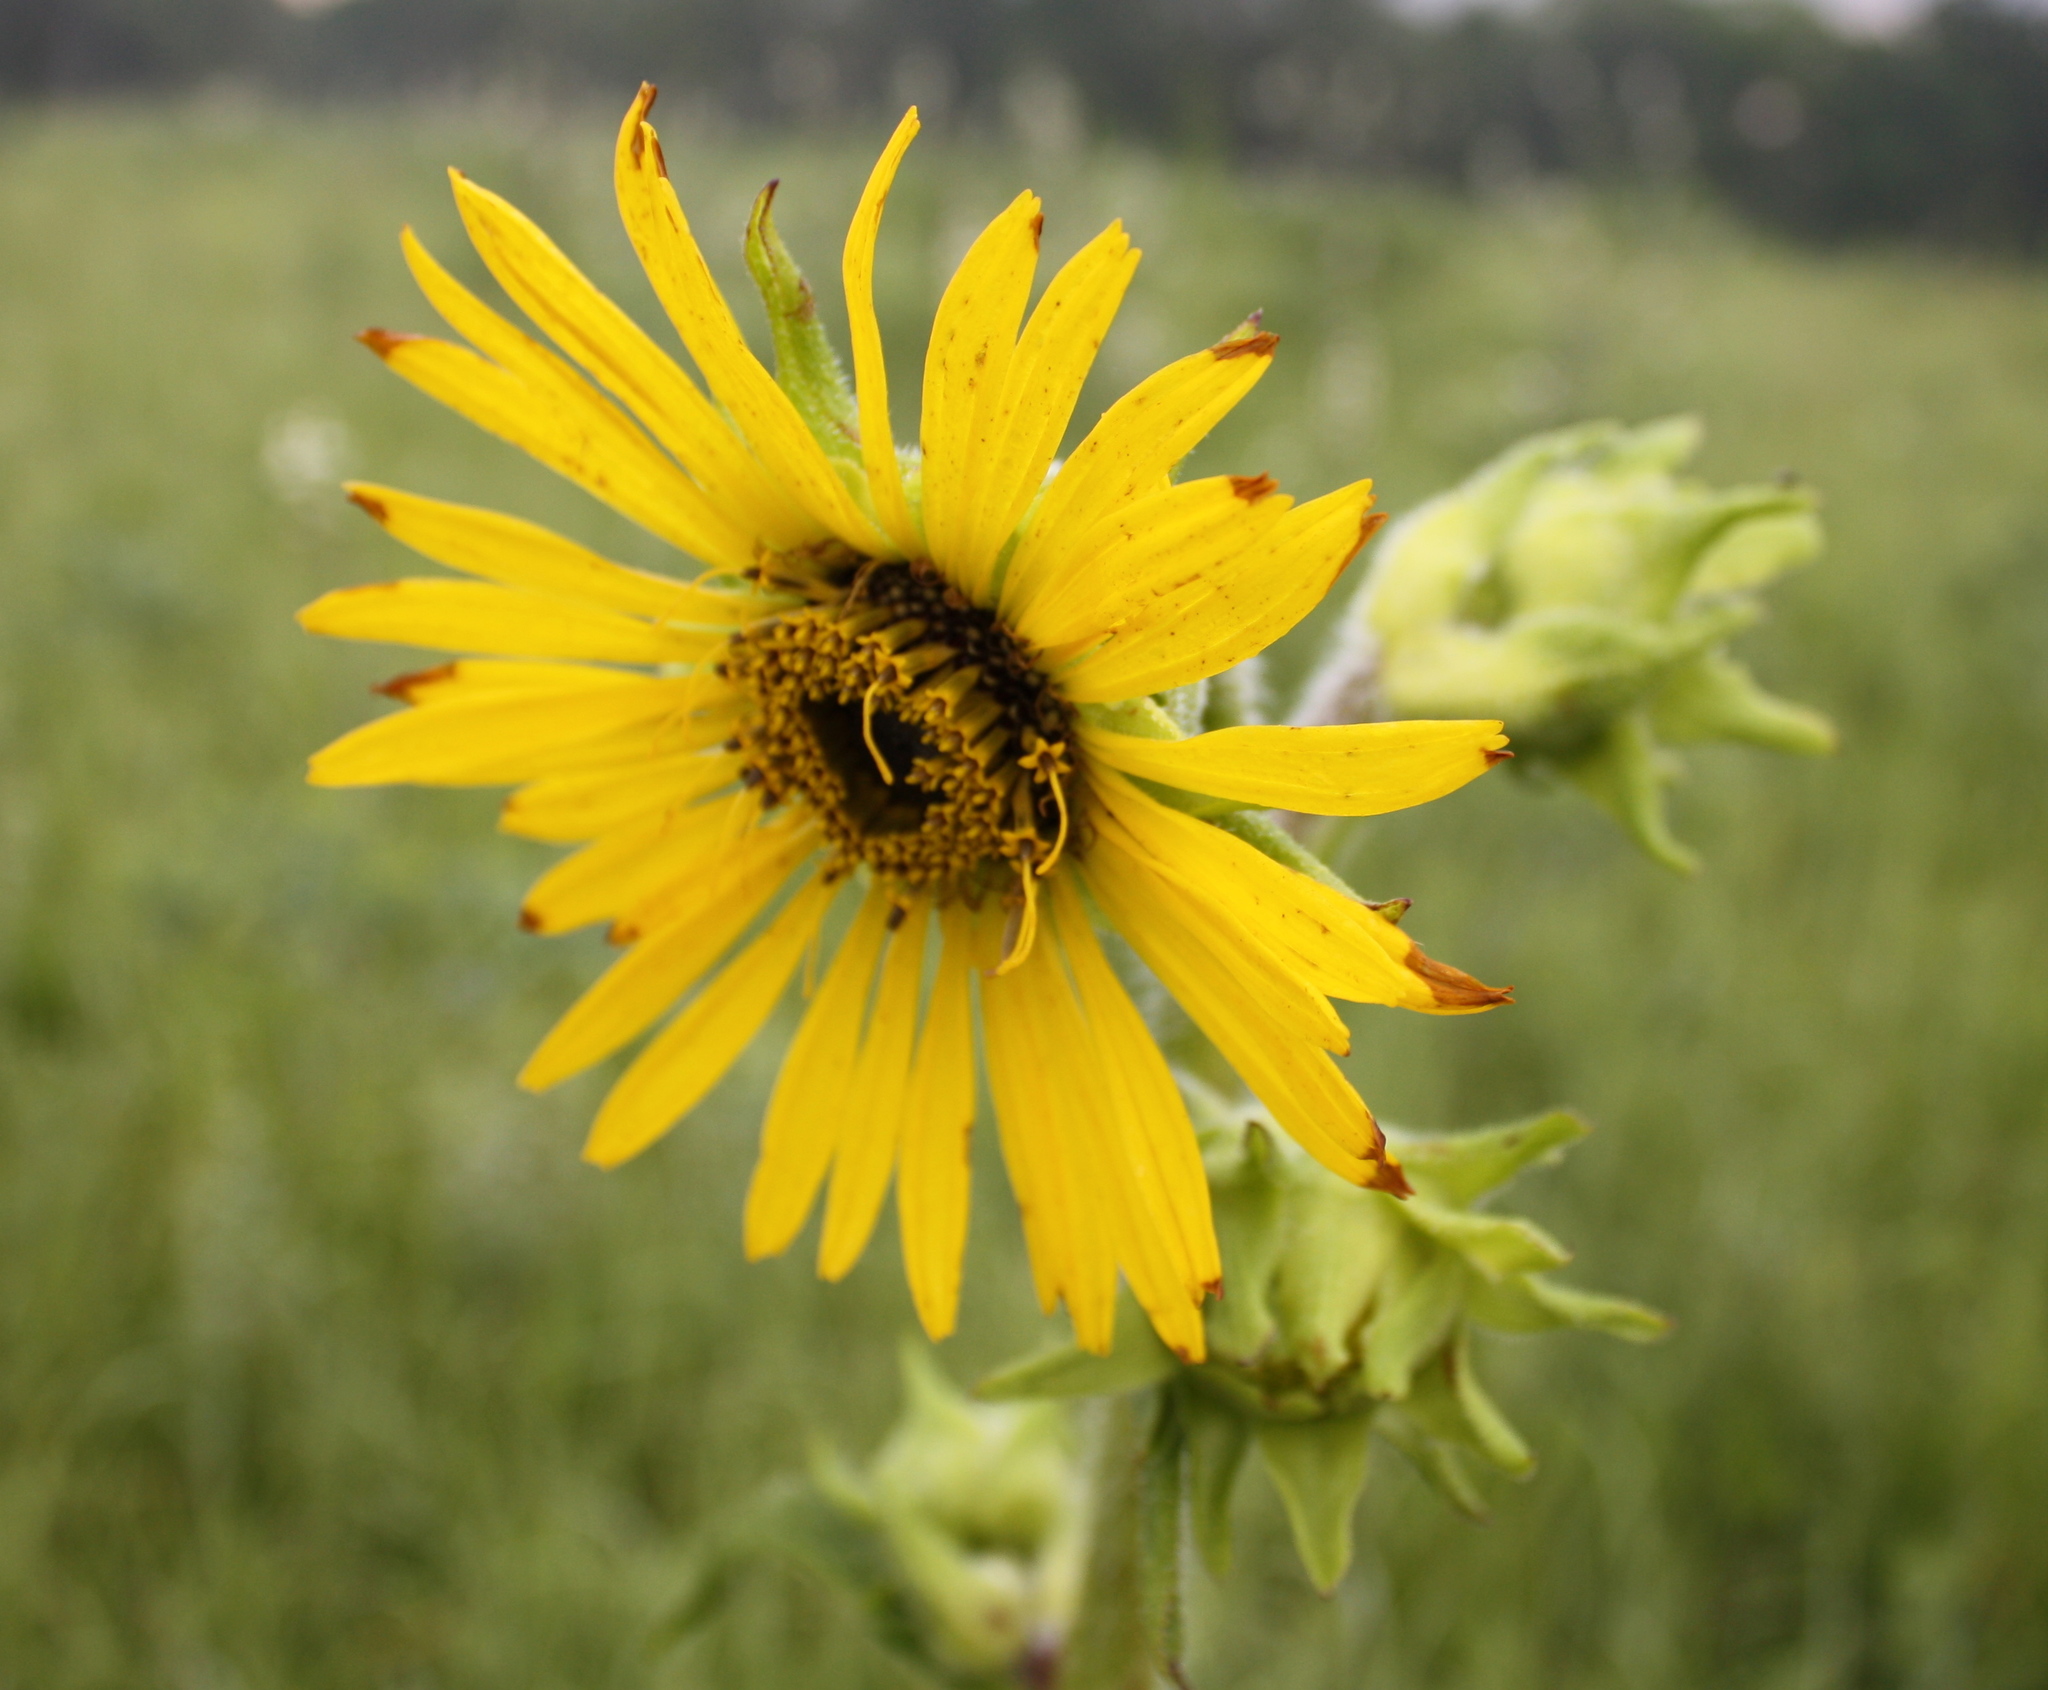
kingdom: Plantae
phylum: Tracheophyta
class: Magnoliopsida
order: Asterales
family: Asteraceae
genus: Silphium
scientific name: Silphium laciniatum
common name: Polarplant
